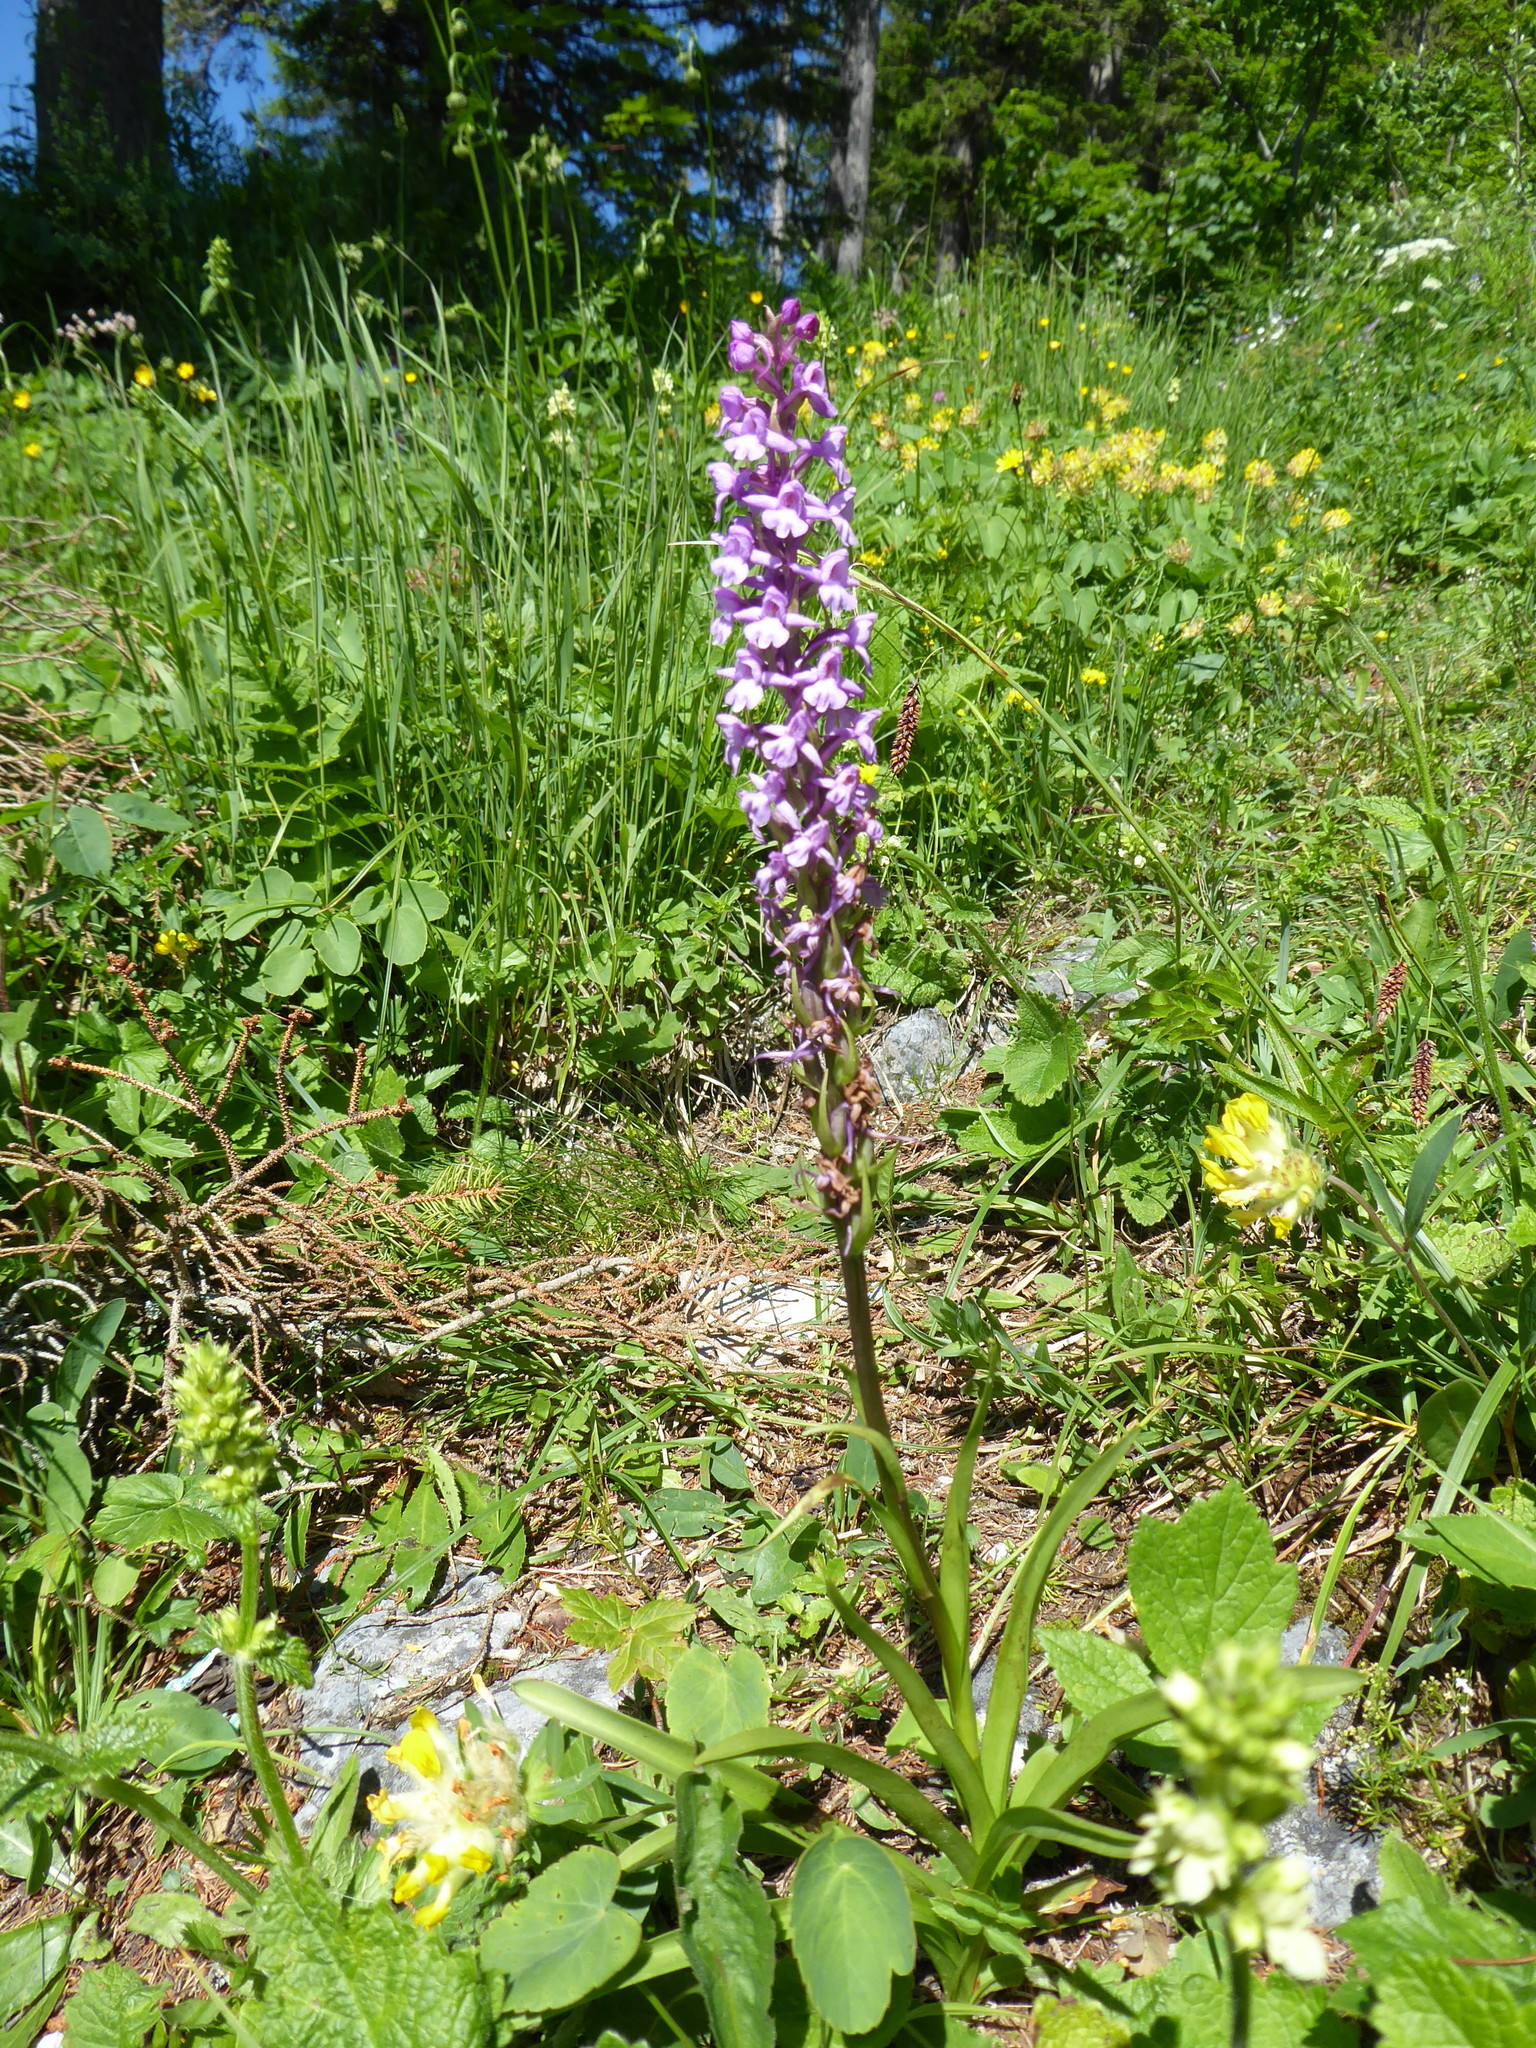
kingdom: Plantae
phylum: Tracheophyta
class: Liliopsida
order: Asparagales
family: Orchidaceae
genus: Gymnadenia
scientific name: Gymnadenia conopsea
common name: Fragrant orchid
